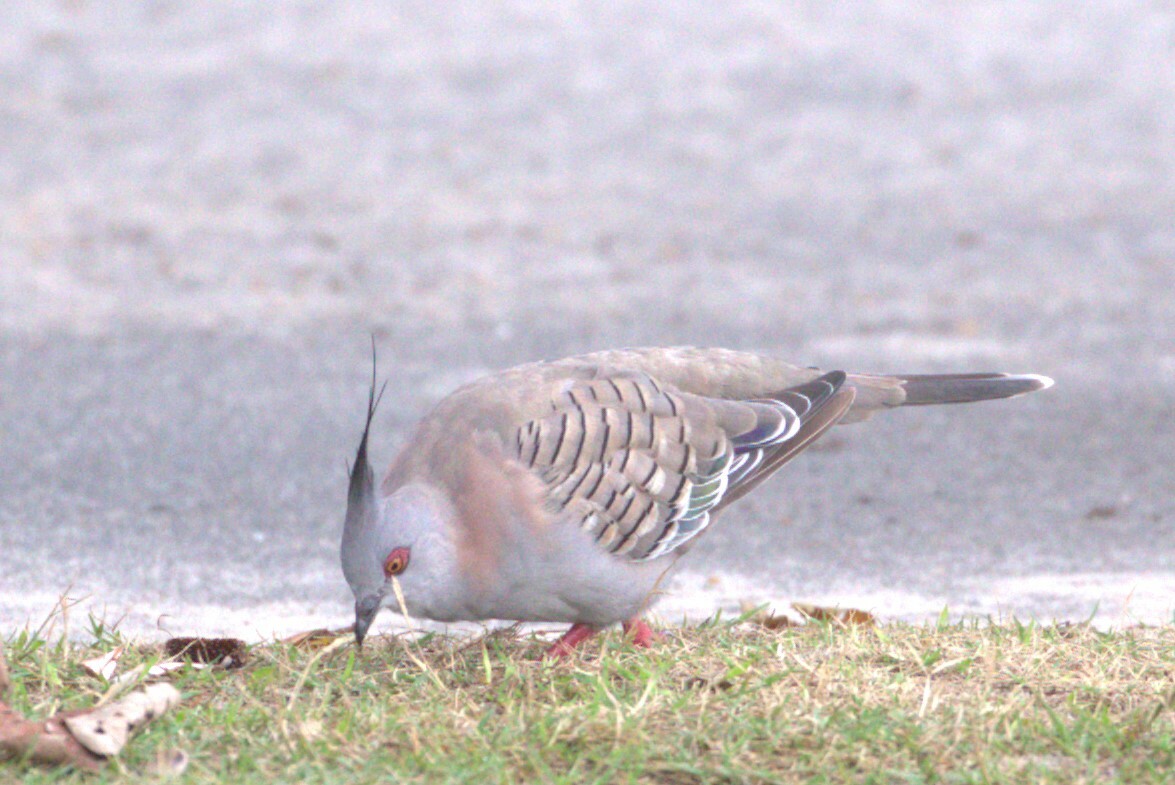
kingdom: Animalia
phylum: Chordata
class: Aves
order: Columbiformes
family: Columbidae
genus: Ocyphaps
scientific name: Ocyphaps lophotes
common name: Crested pigeon
